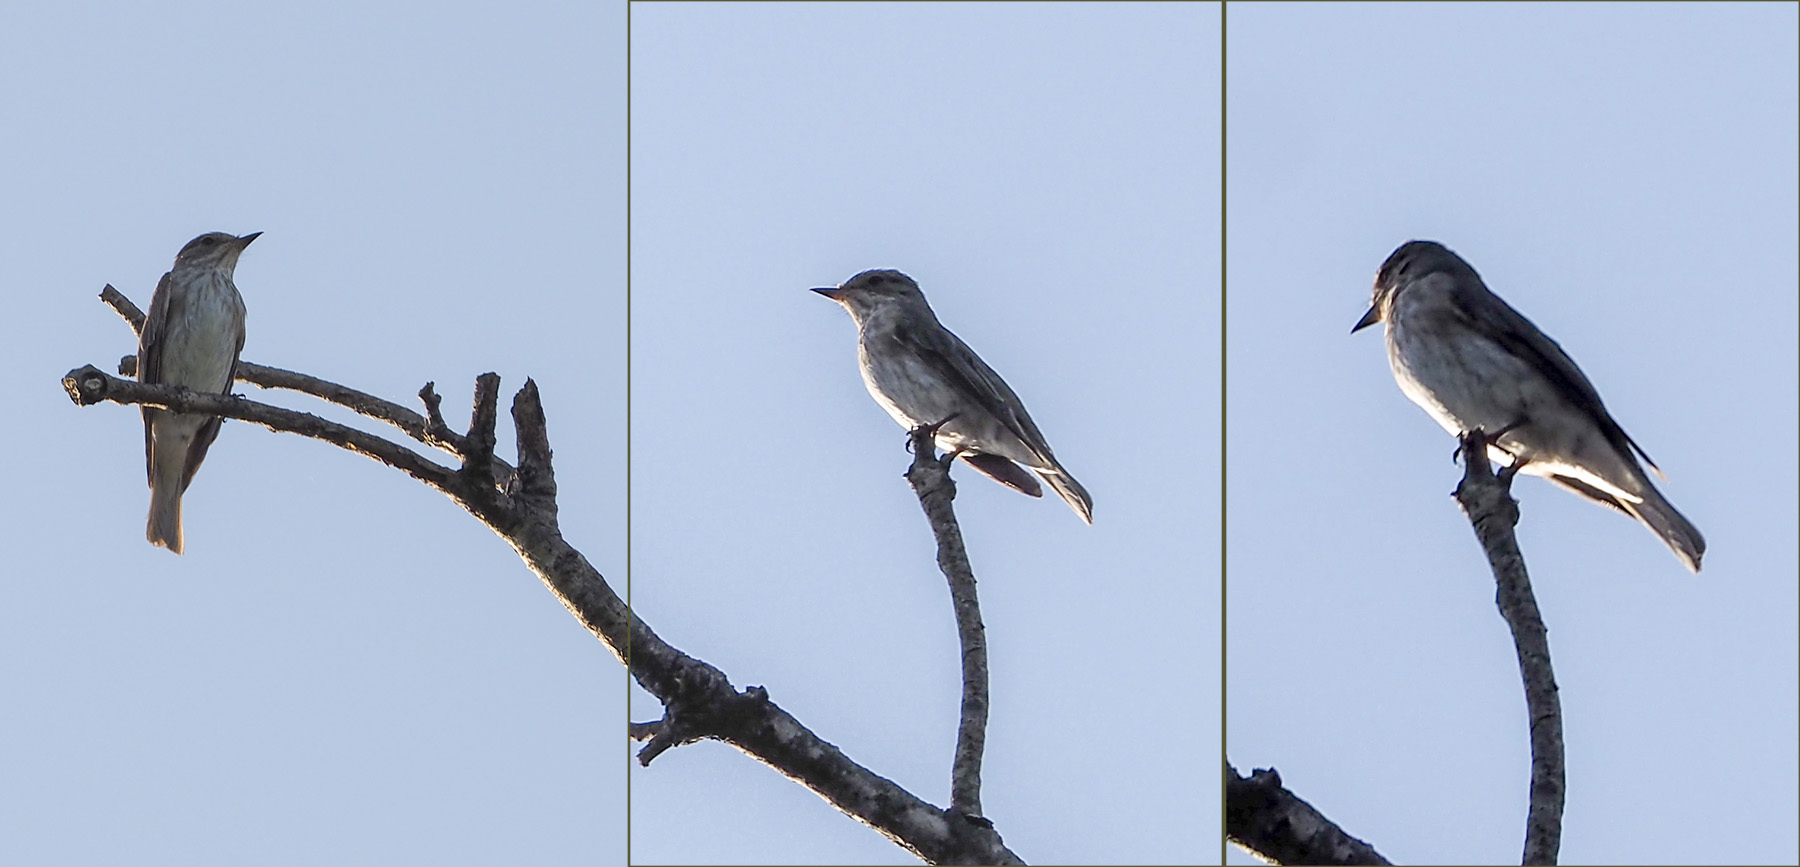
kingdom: Animalia
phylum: Chordata
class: Aves
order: Passeriformes
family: Muscicapidae
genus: Muscicapa
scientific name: Muscicapa striata
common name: Spotted flycatcher
